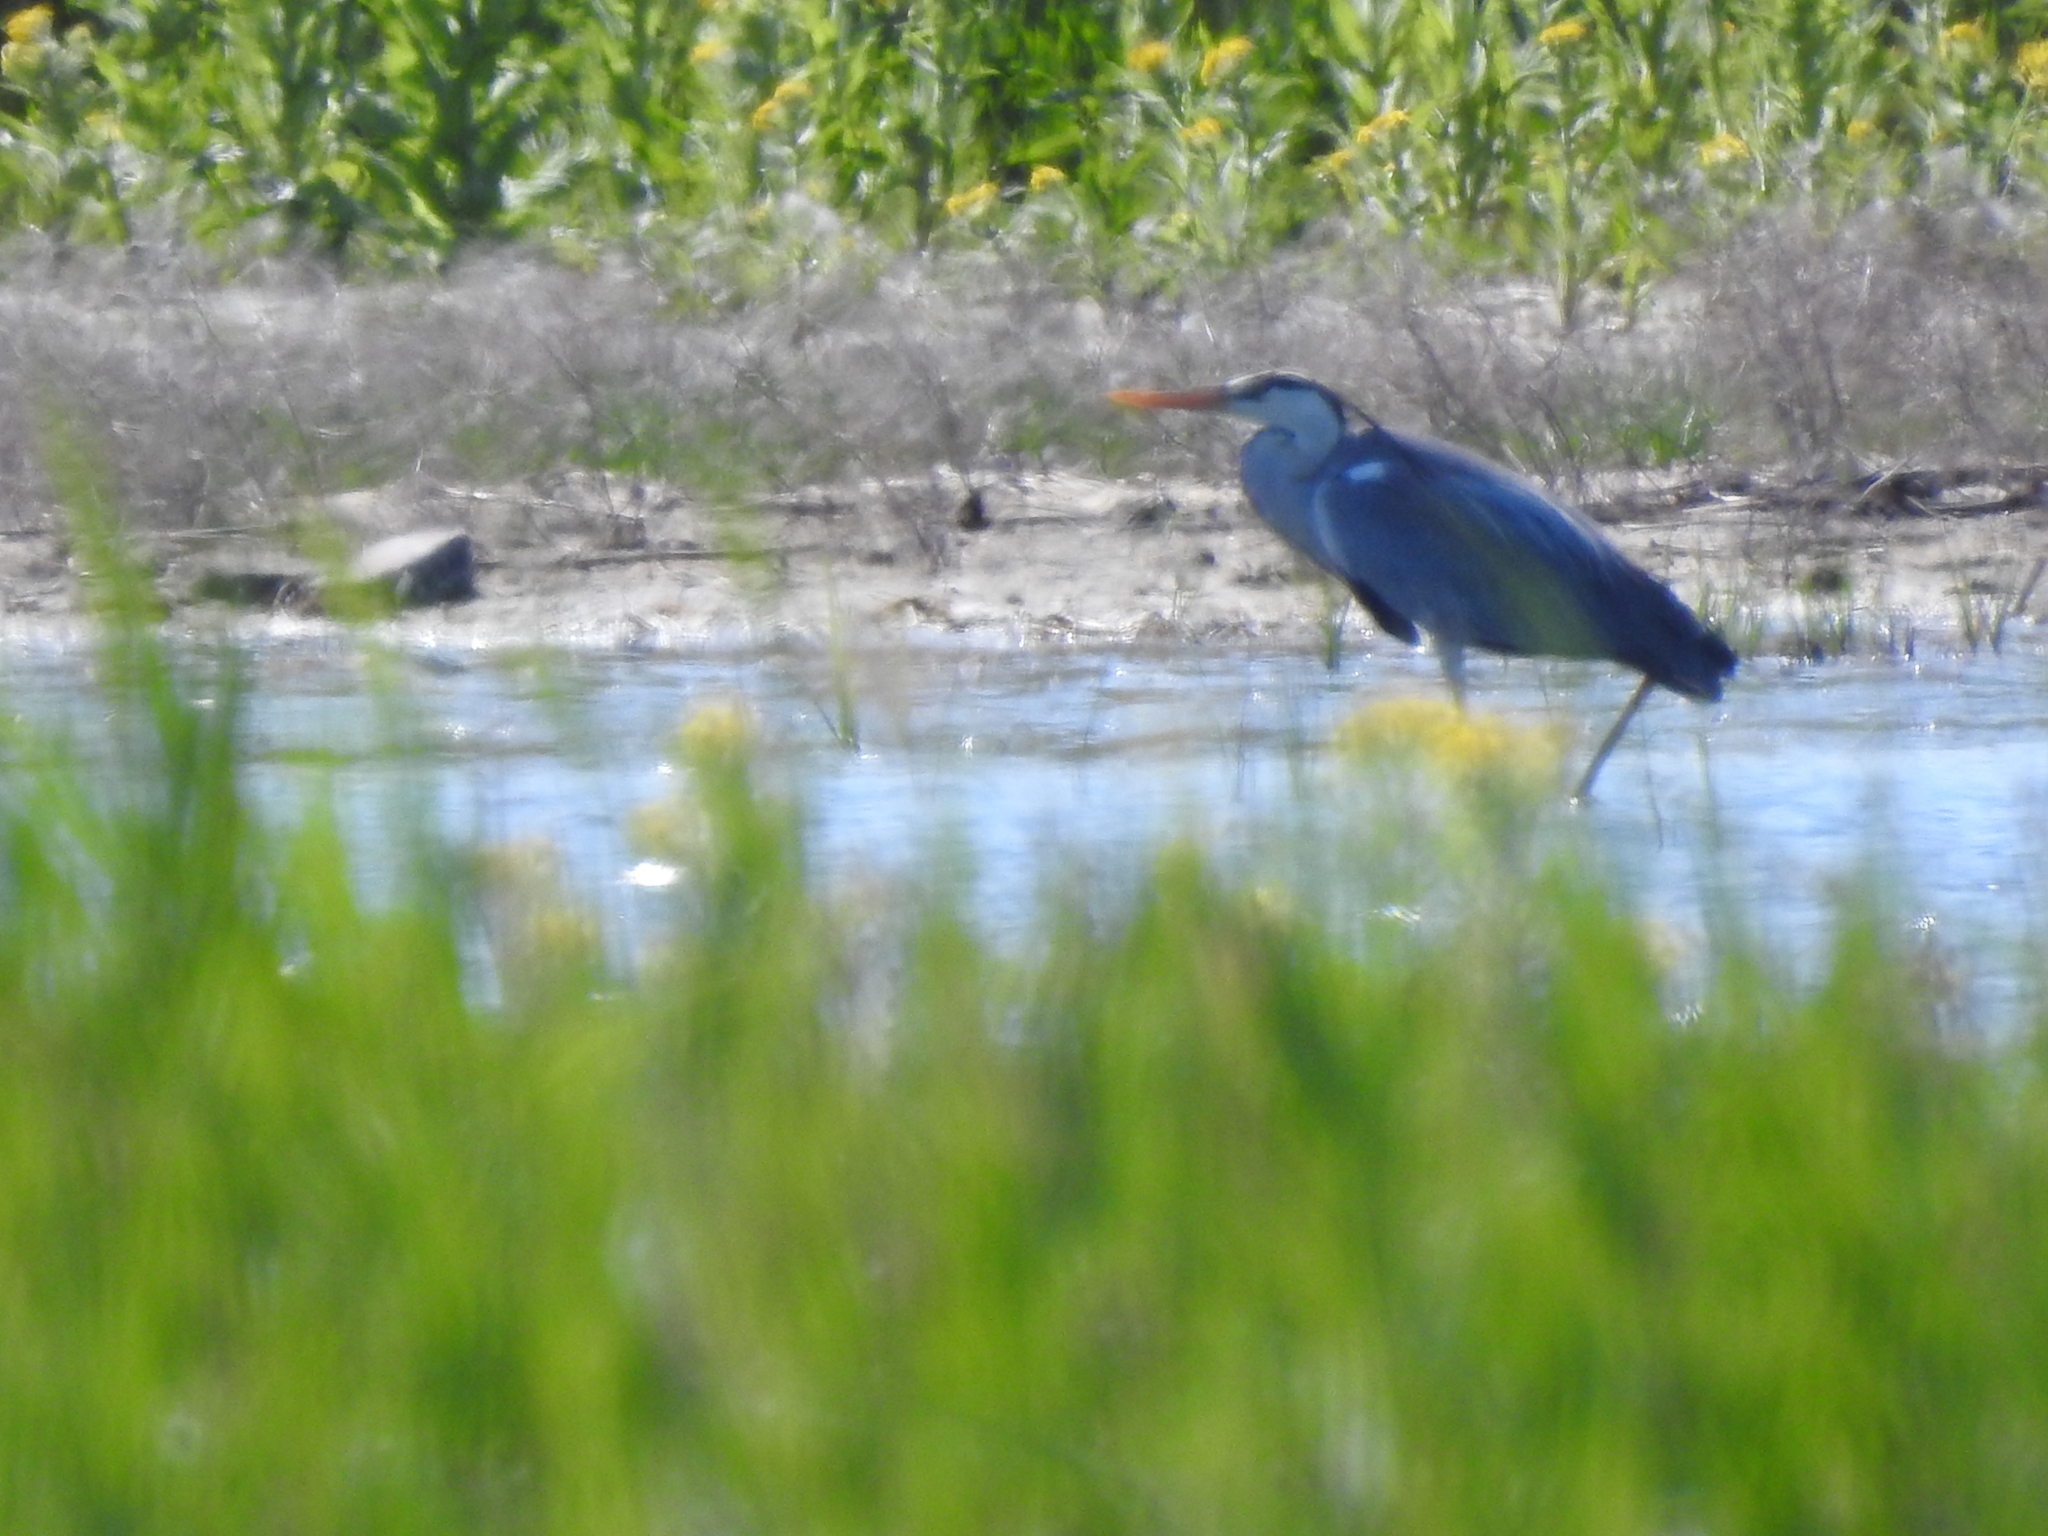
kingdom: Animalia
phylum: Chordata
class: Aves
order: Pelecaniformes
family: Ardeidae
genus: Ardea
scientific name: Ardea cinerea
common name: Grey heron
